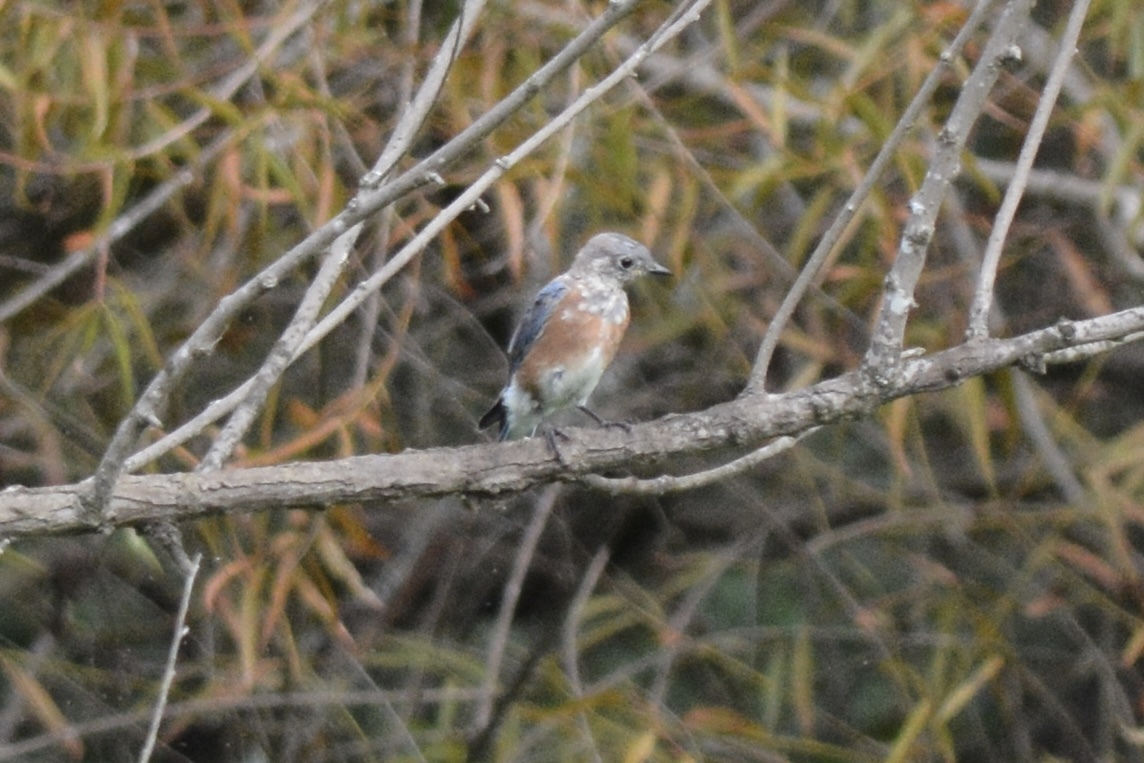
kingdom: Animalia
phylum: Chordata
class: Aves
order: Passeriformes
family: Turdidae
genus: Sialia
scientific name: Sialia sialis
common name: Eastern bluebird
